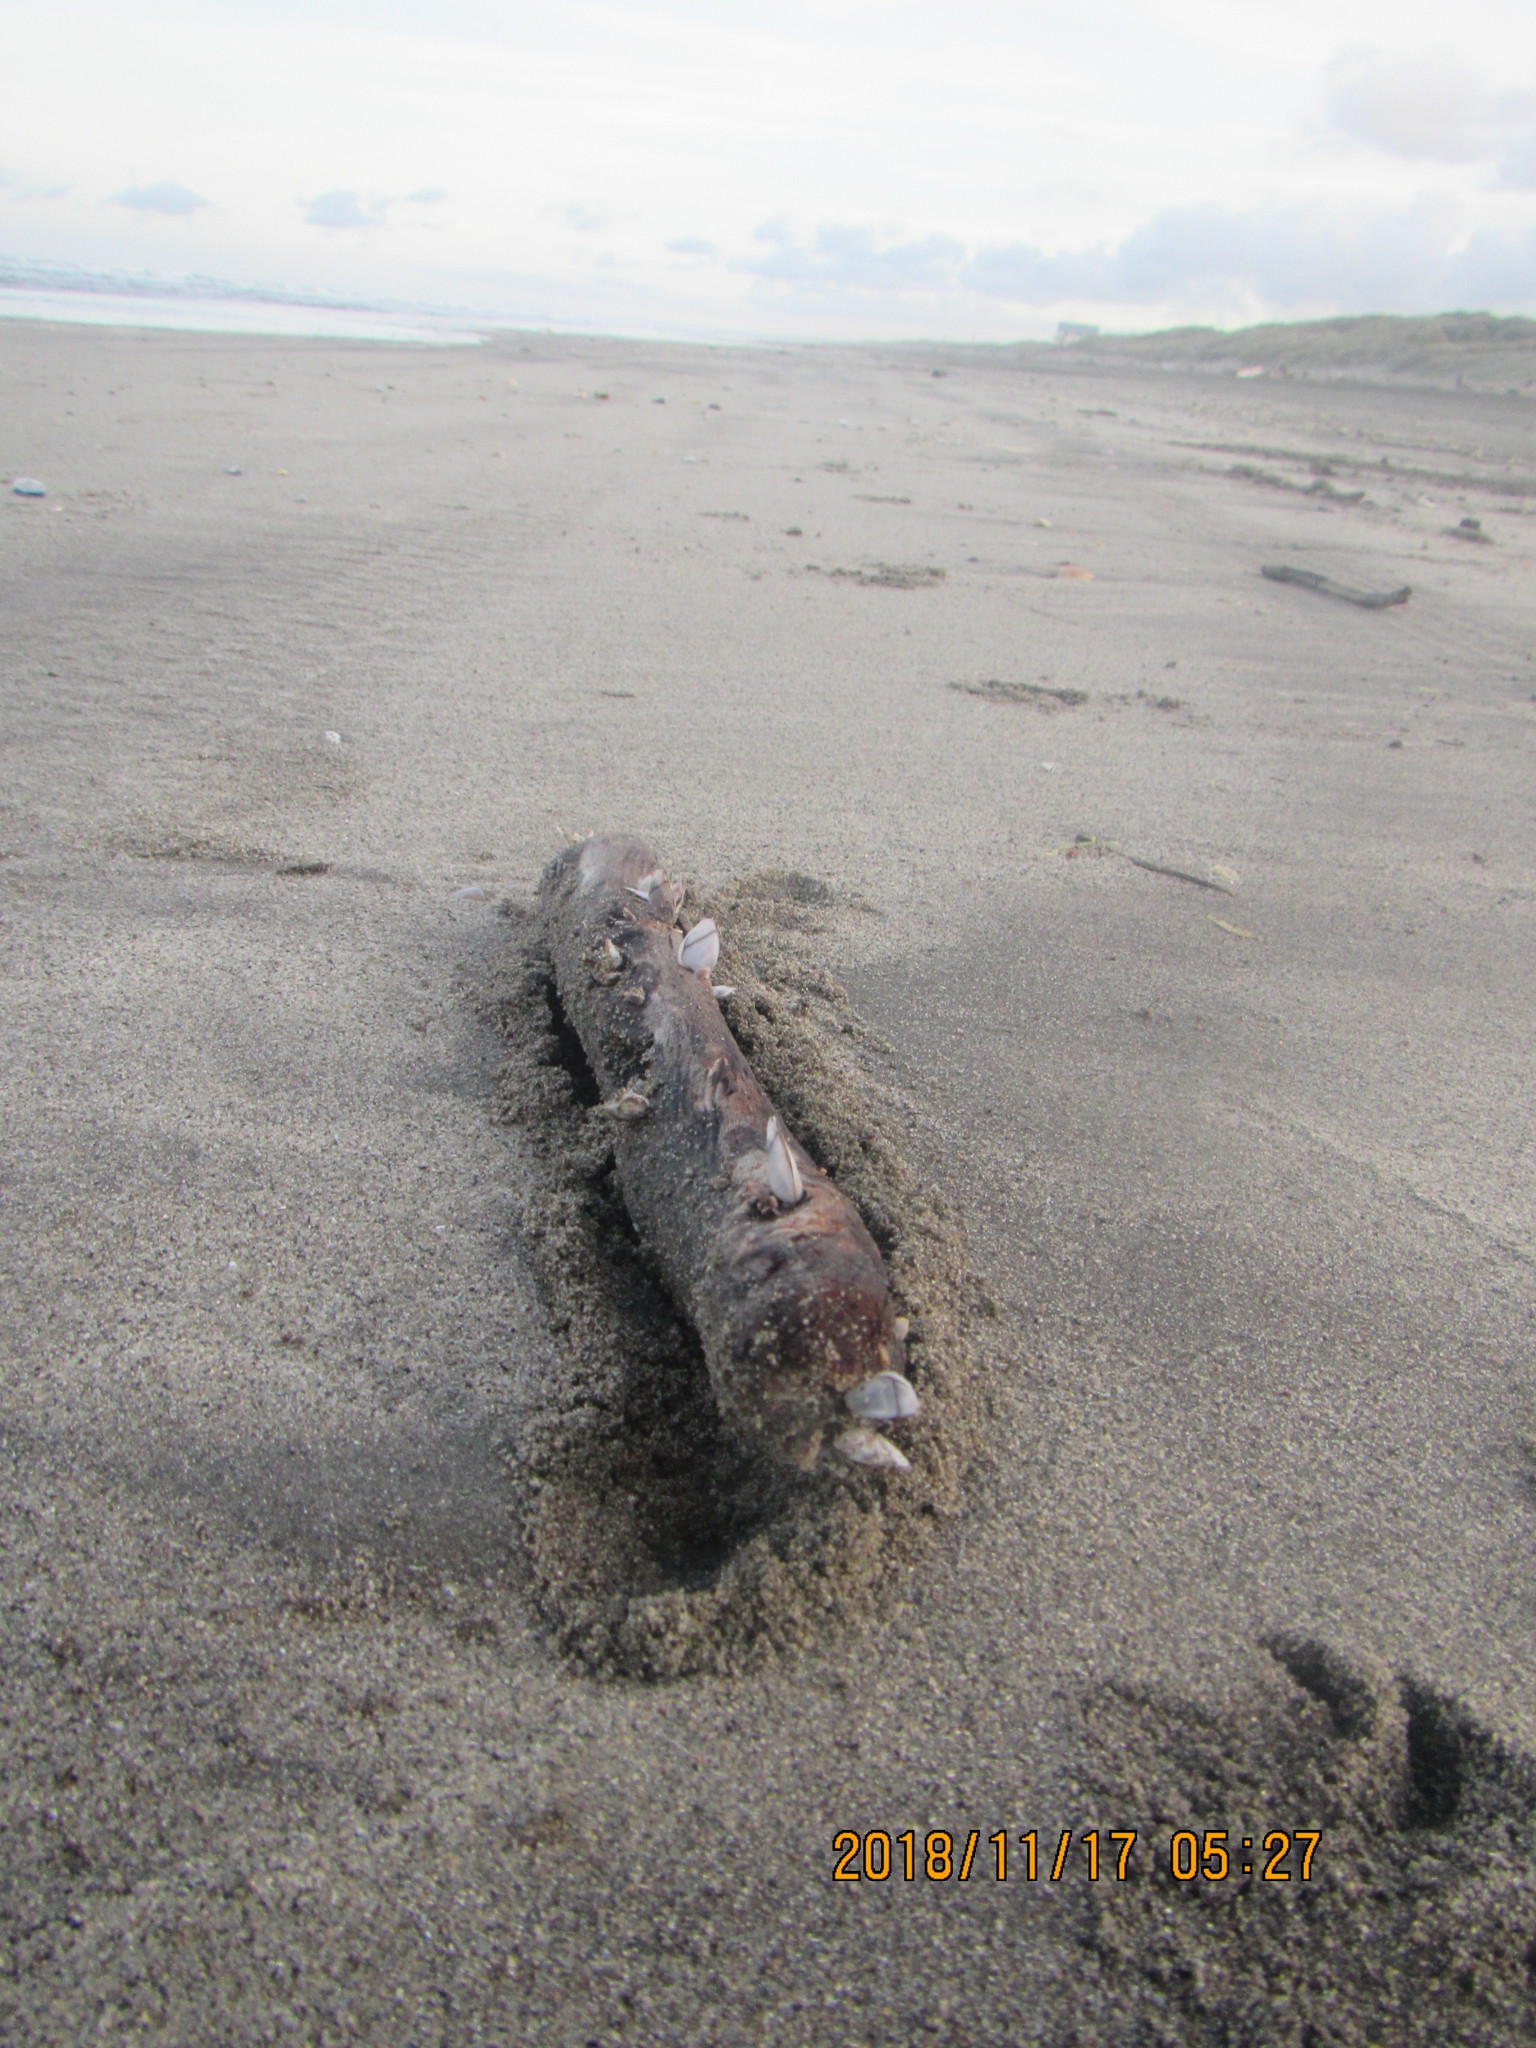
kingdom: Animalia
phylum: Arthropoda
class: Maxillopoda
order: Pedunculata
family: Lepadidae
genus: Lepas
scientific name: Lepas anatifera
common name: Common goose barnacle
